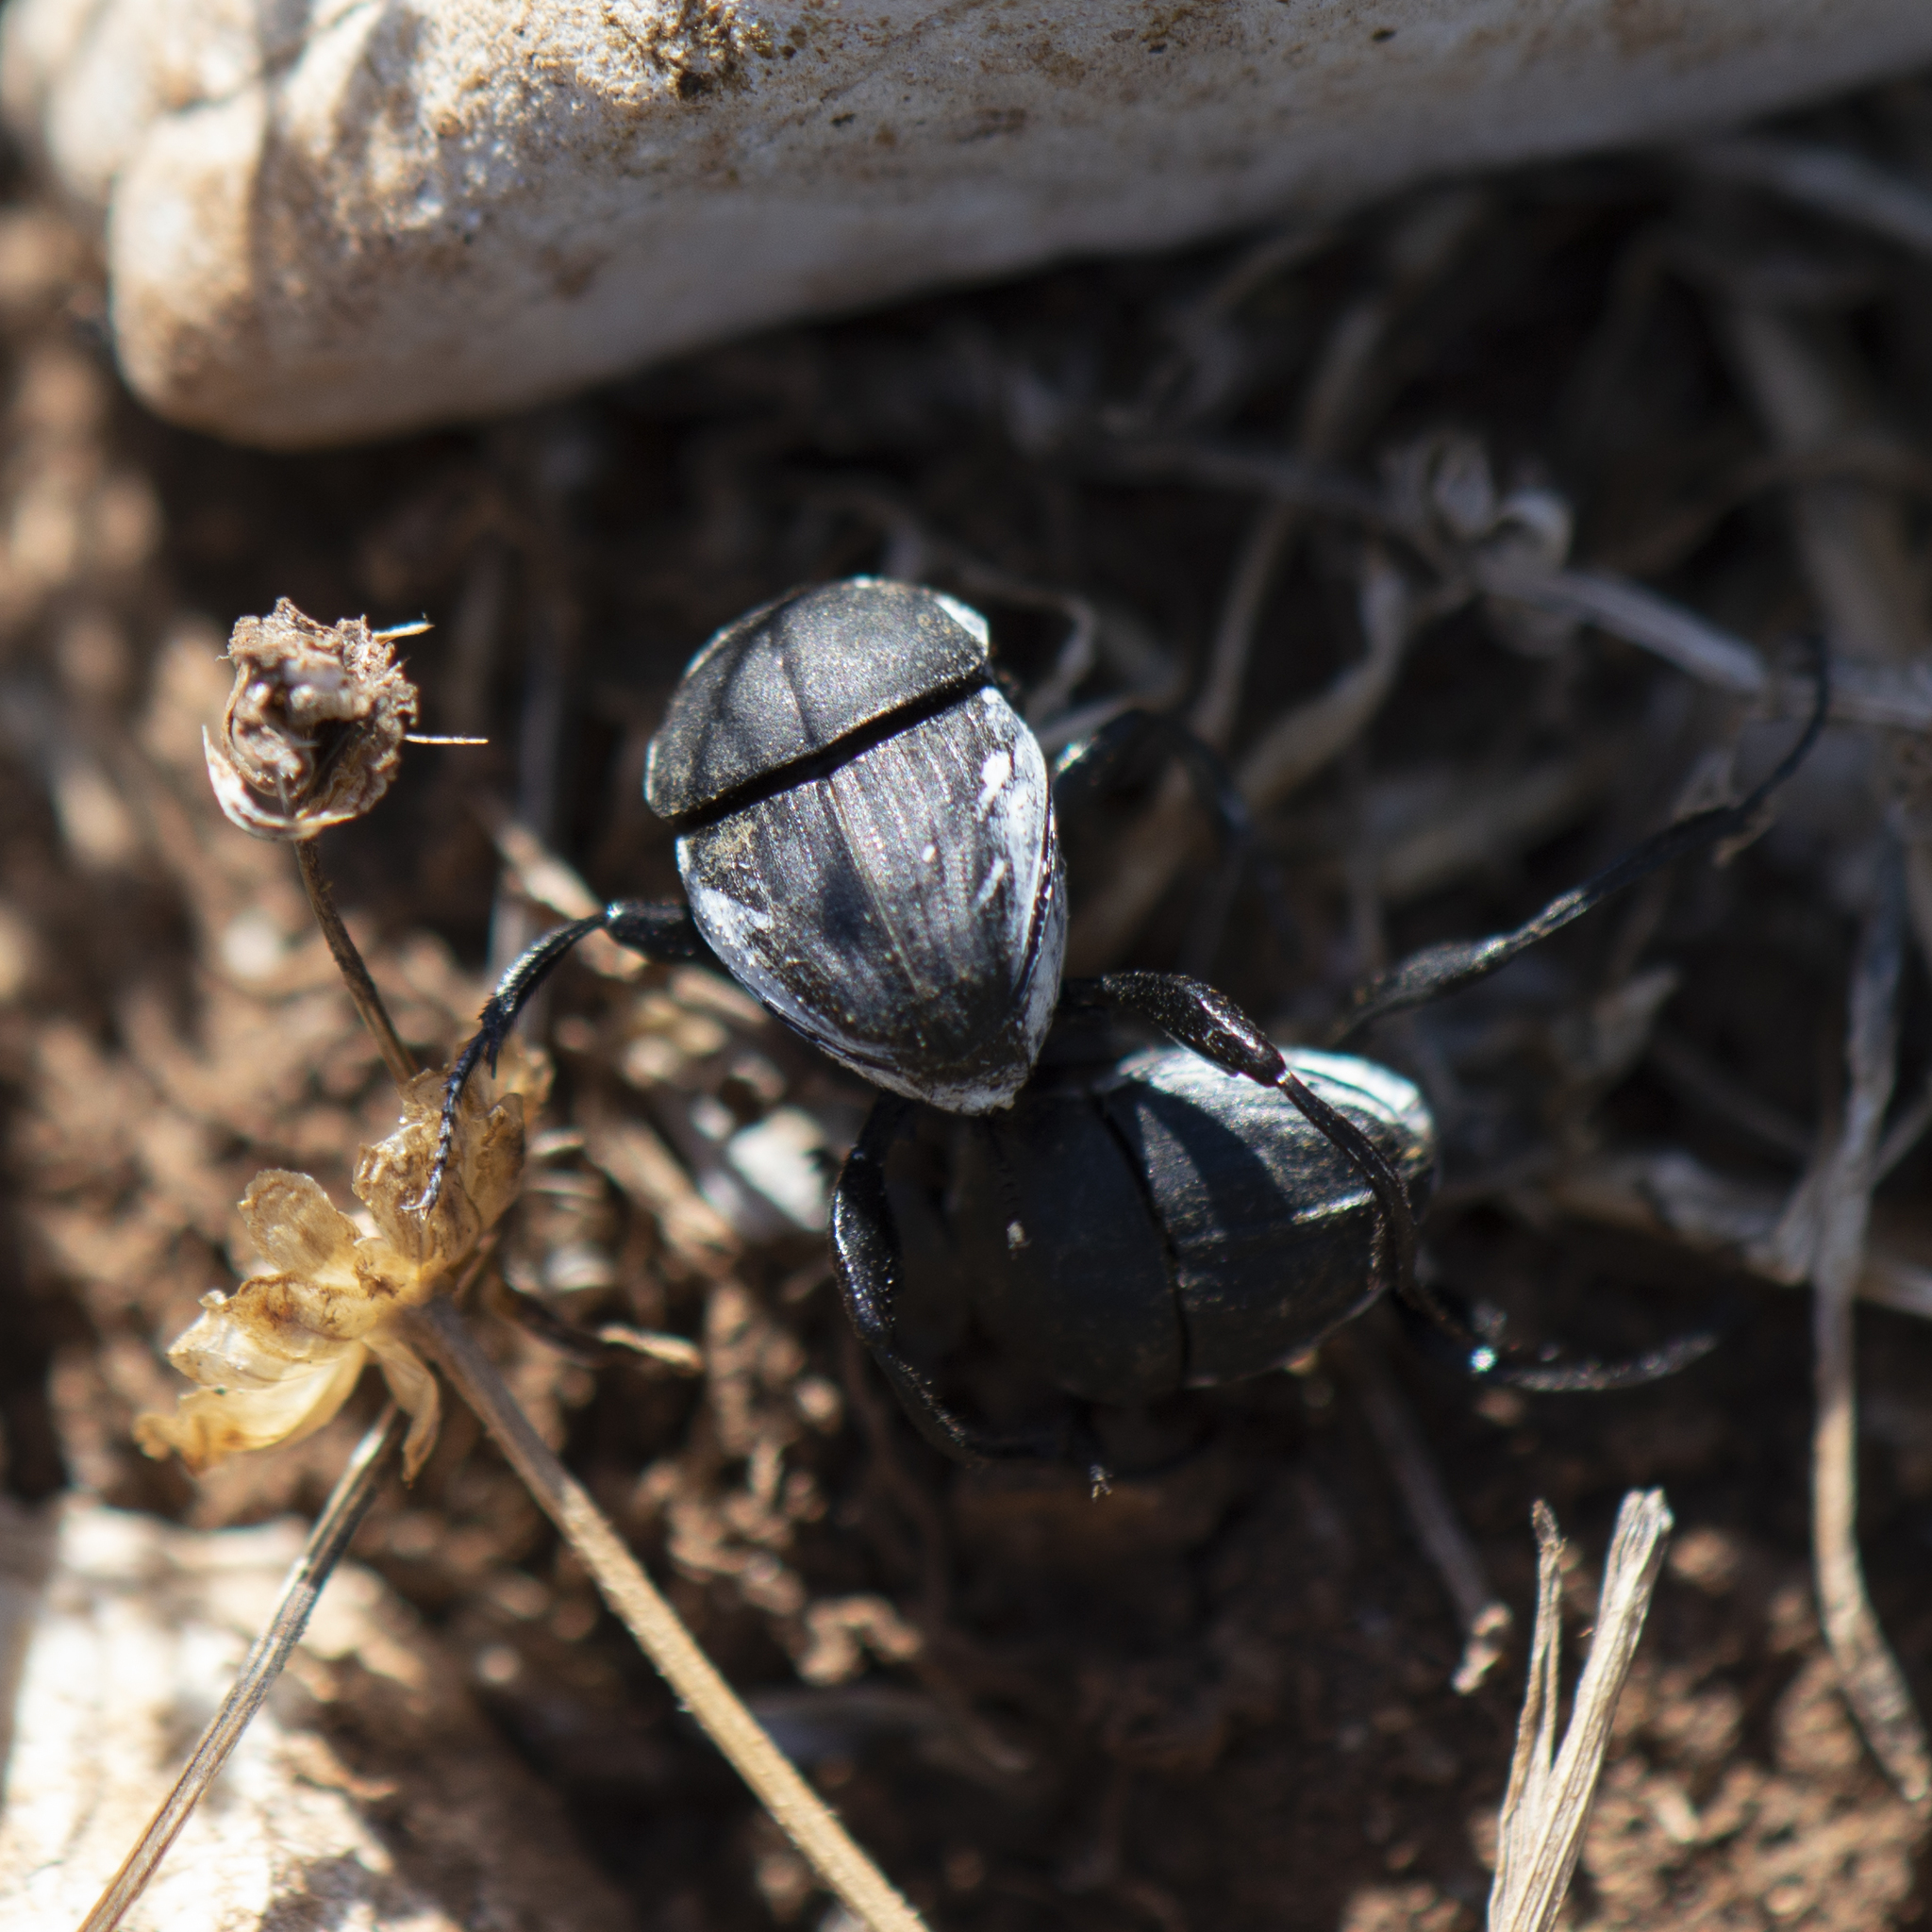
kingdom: Animalia
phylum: Arthropoda
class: Insecta
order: Coleoptera
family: Scarabaeidae
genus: Sisyphus
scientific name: Sisyphus schaefferi
